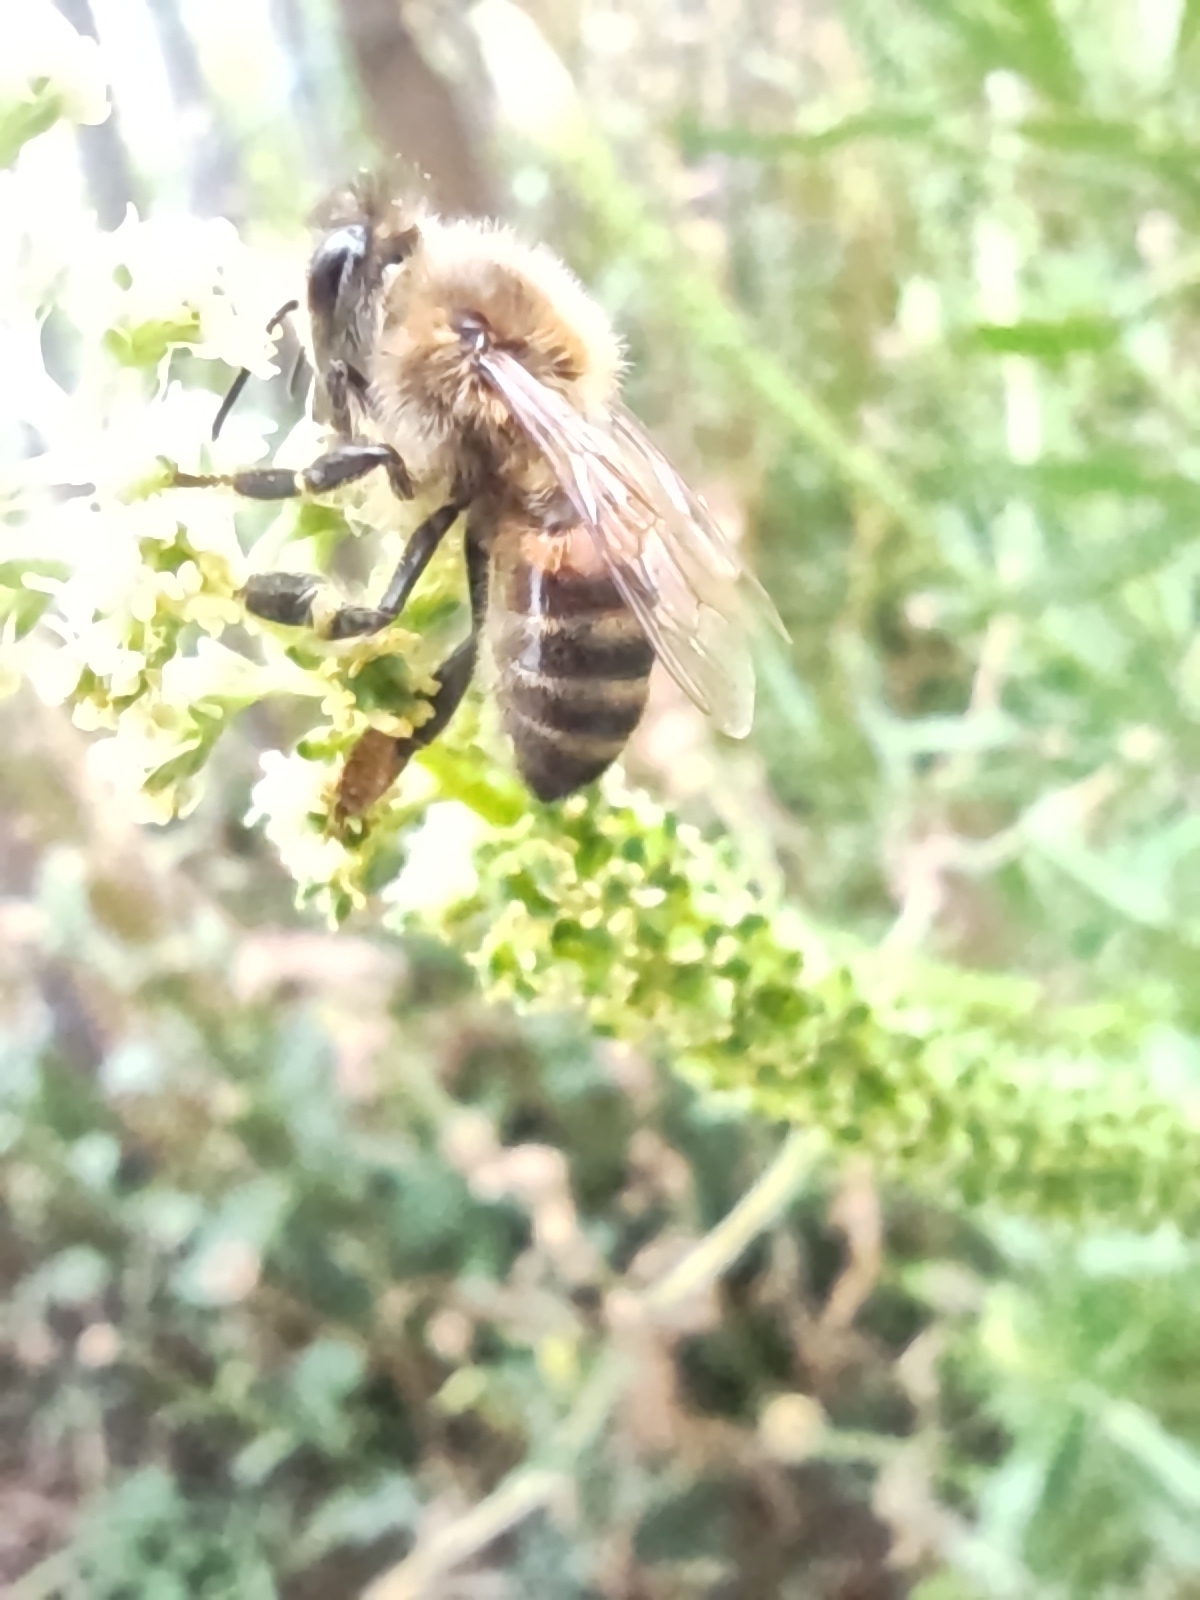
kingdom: Animalia
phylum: Arthropoda
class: Insecta
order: Hymenoptera
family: Apidae
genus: Apis
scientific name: Apis mellifera
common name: Honey bee
